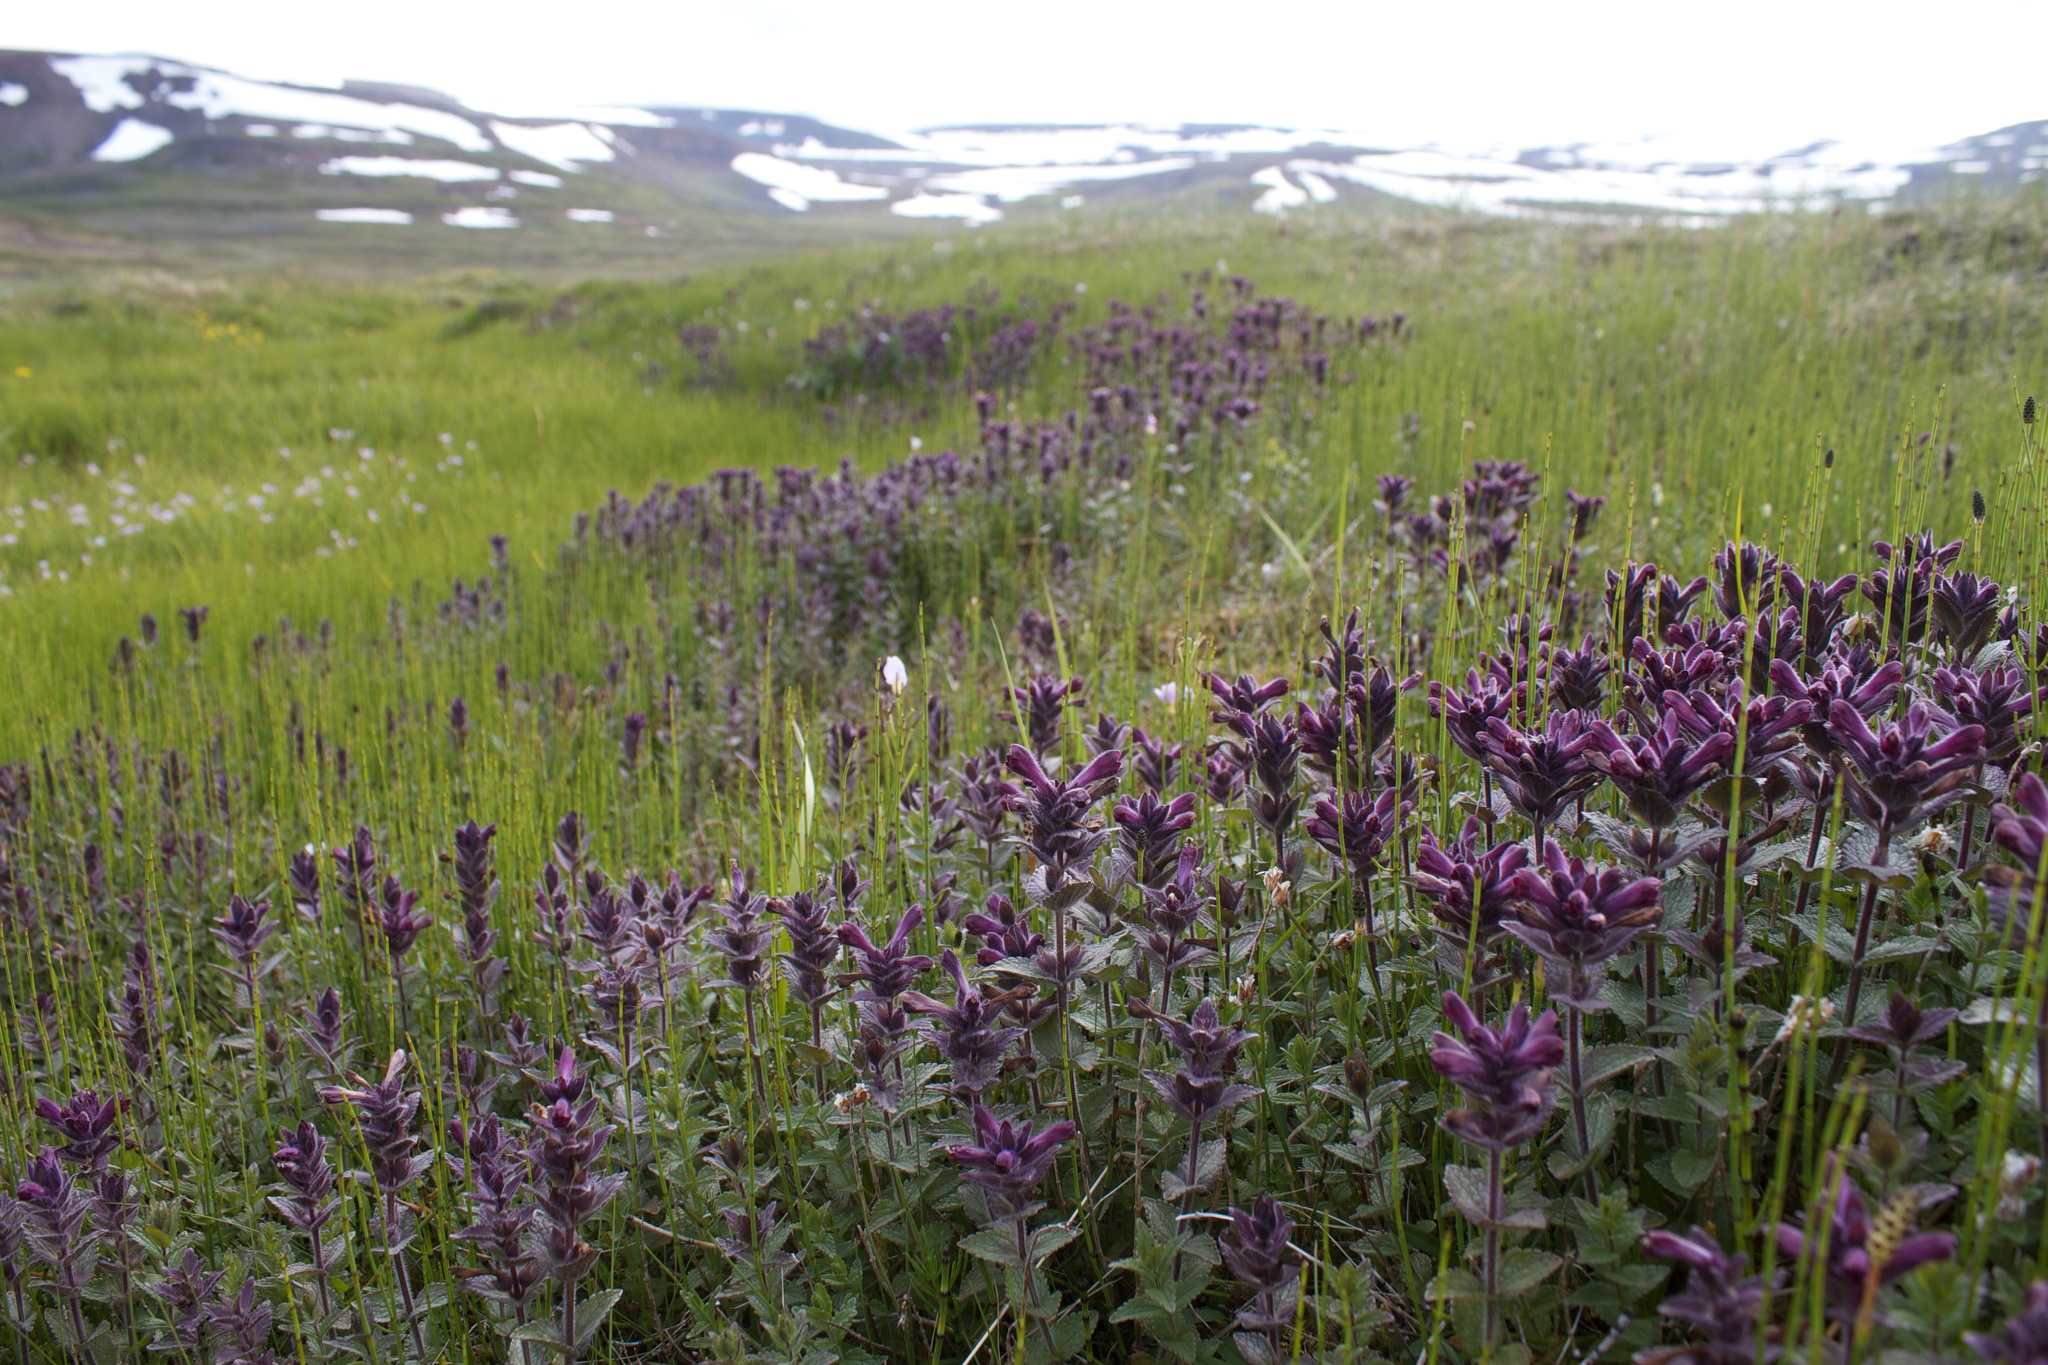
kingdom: Plantae
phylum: Tracheophyta
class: Magnoliopsida
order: Lamiales
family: Orobanchaceae
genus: Bartsia
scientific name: Bartsia alpina
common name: Alpine bartsia
